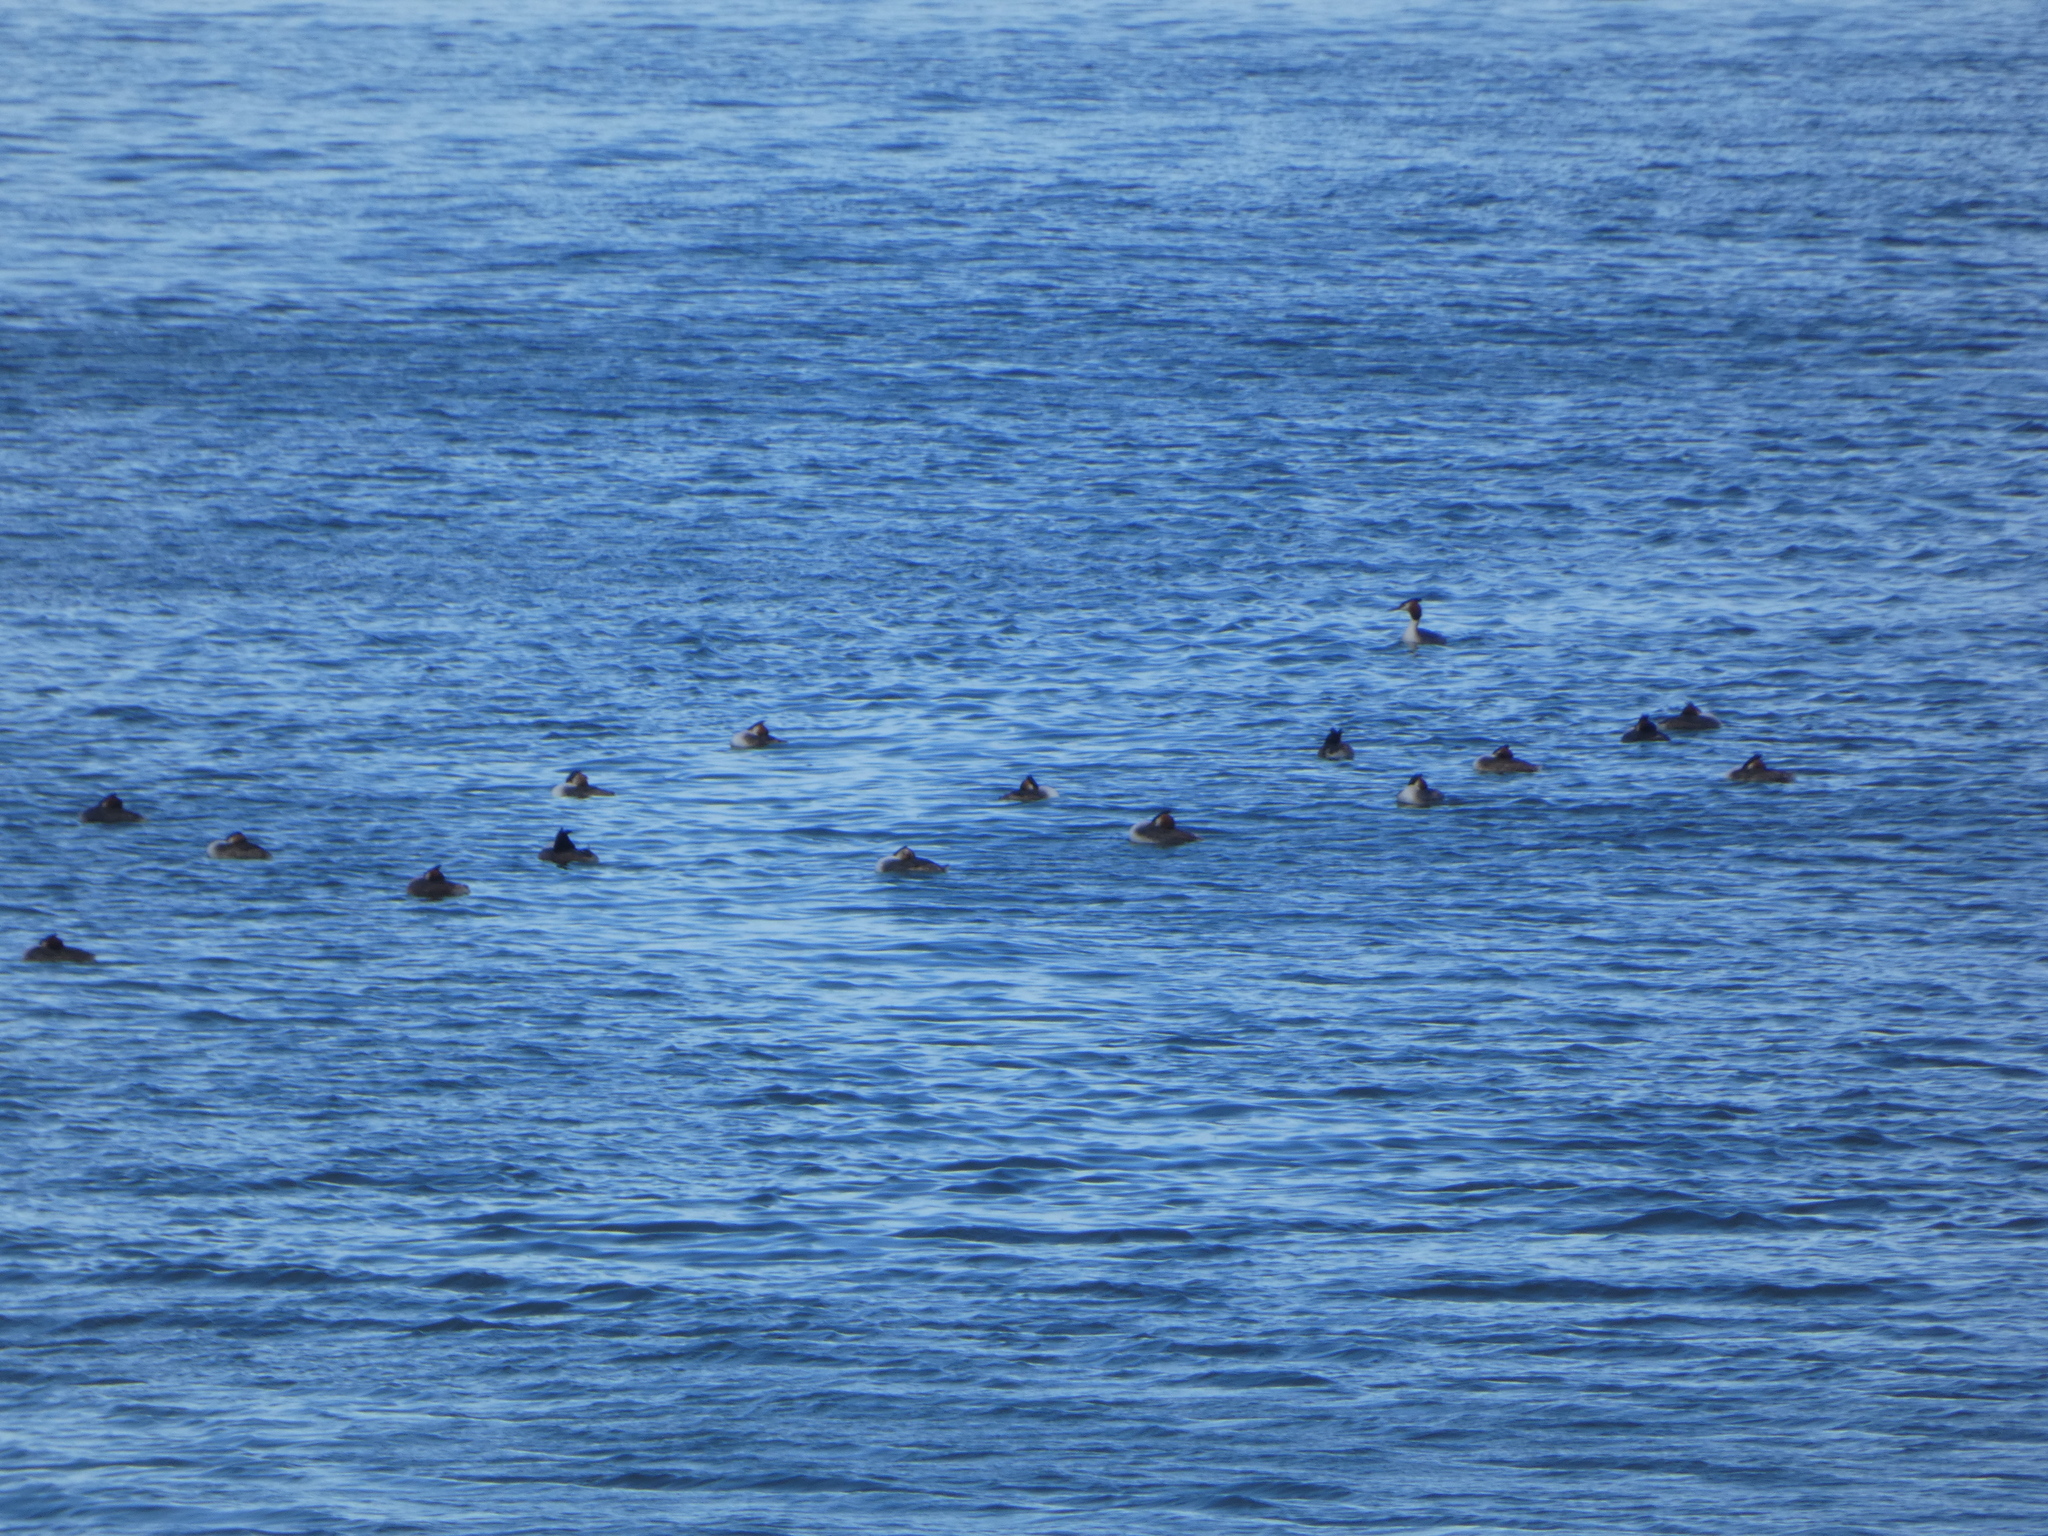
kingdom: Animalia
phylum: Chordata
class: Aves
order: Podicipediformes
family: Podicipedidae
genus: Podiceps
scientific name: Podiceps cristatus
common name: Great crested grebe
